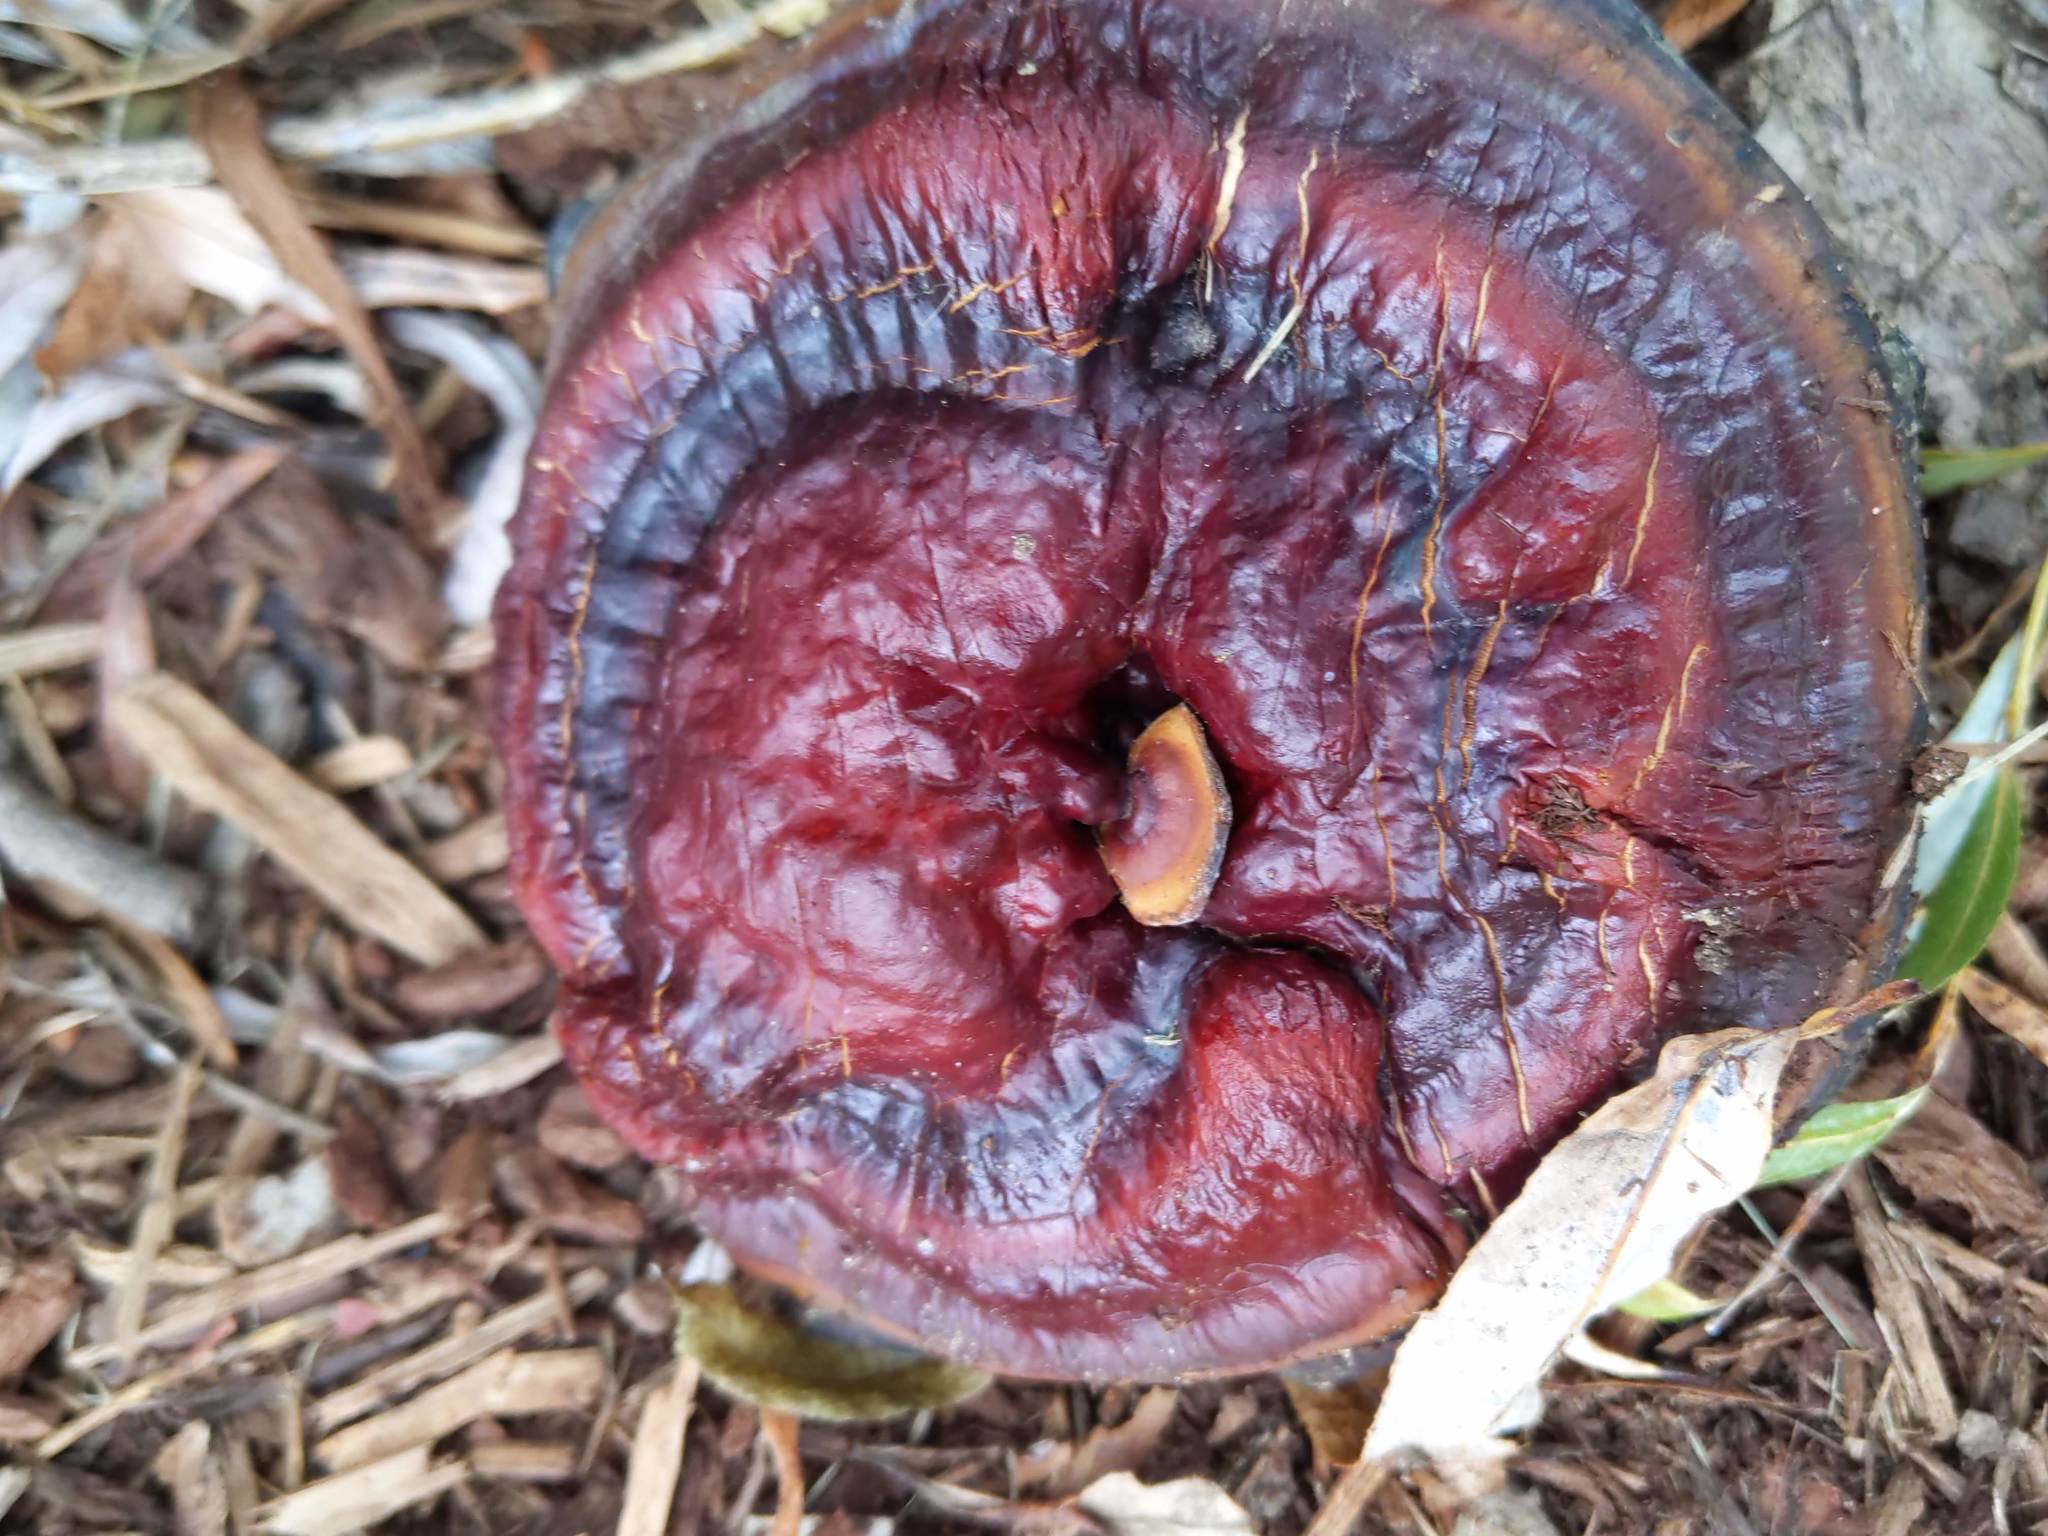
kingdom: Fungi
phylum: Basidiomycota
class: Agaricomycetes
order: Polyporales
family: Polyporaceae
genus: Ganoderma
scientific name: Ganoderma
